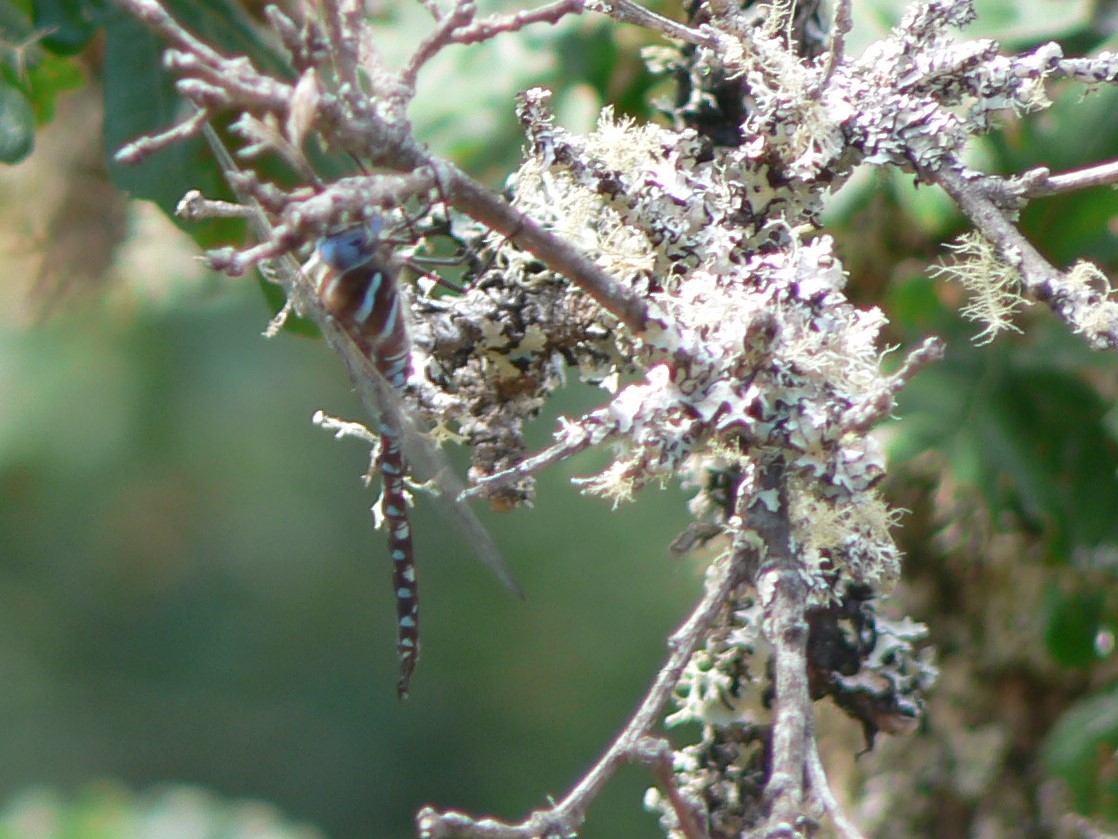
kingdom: Animalia
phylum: Arthropoda
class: Insecta
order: Odonata
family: Aeshnidae
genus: Rhionaeschna
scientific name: Rhionaeschna multicolor
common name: Blue-eyed darner
